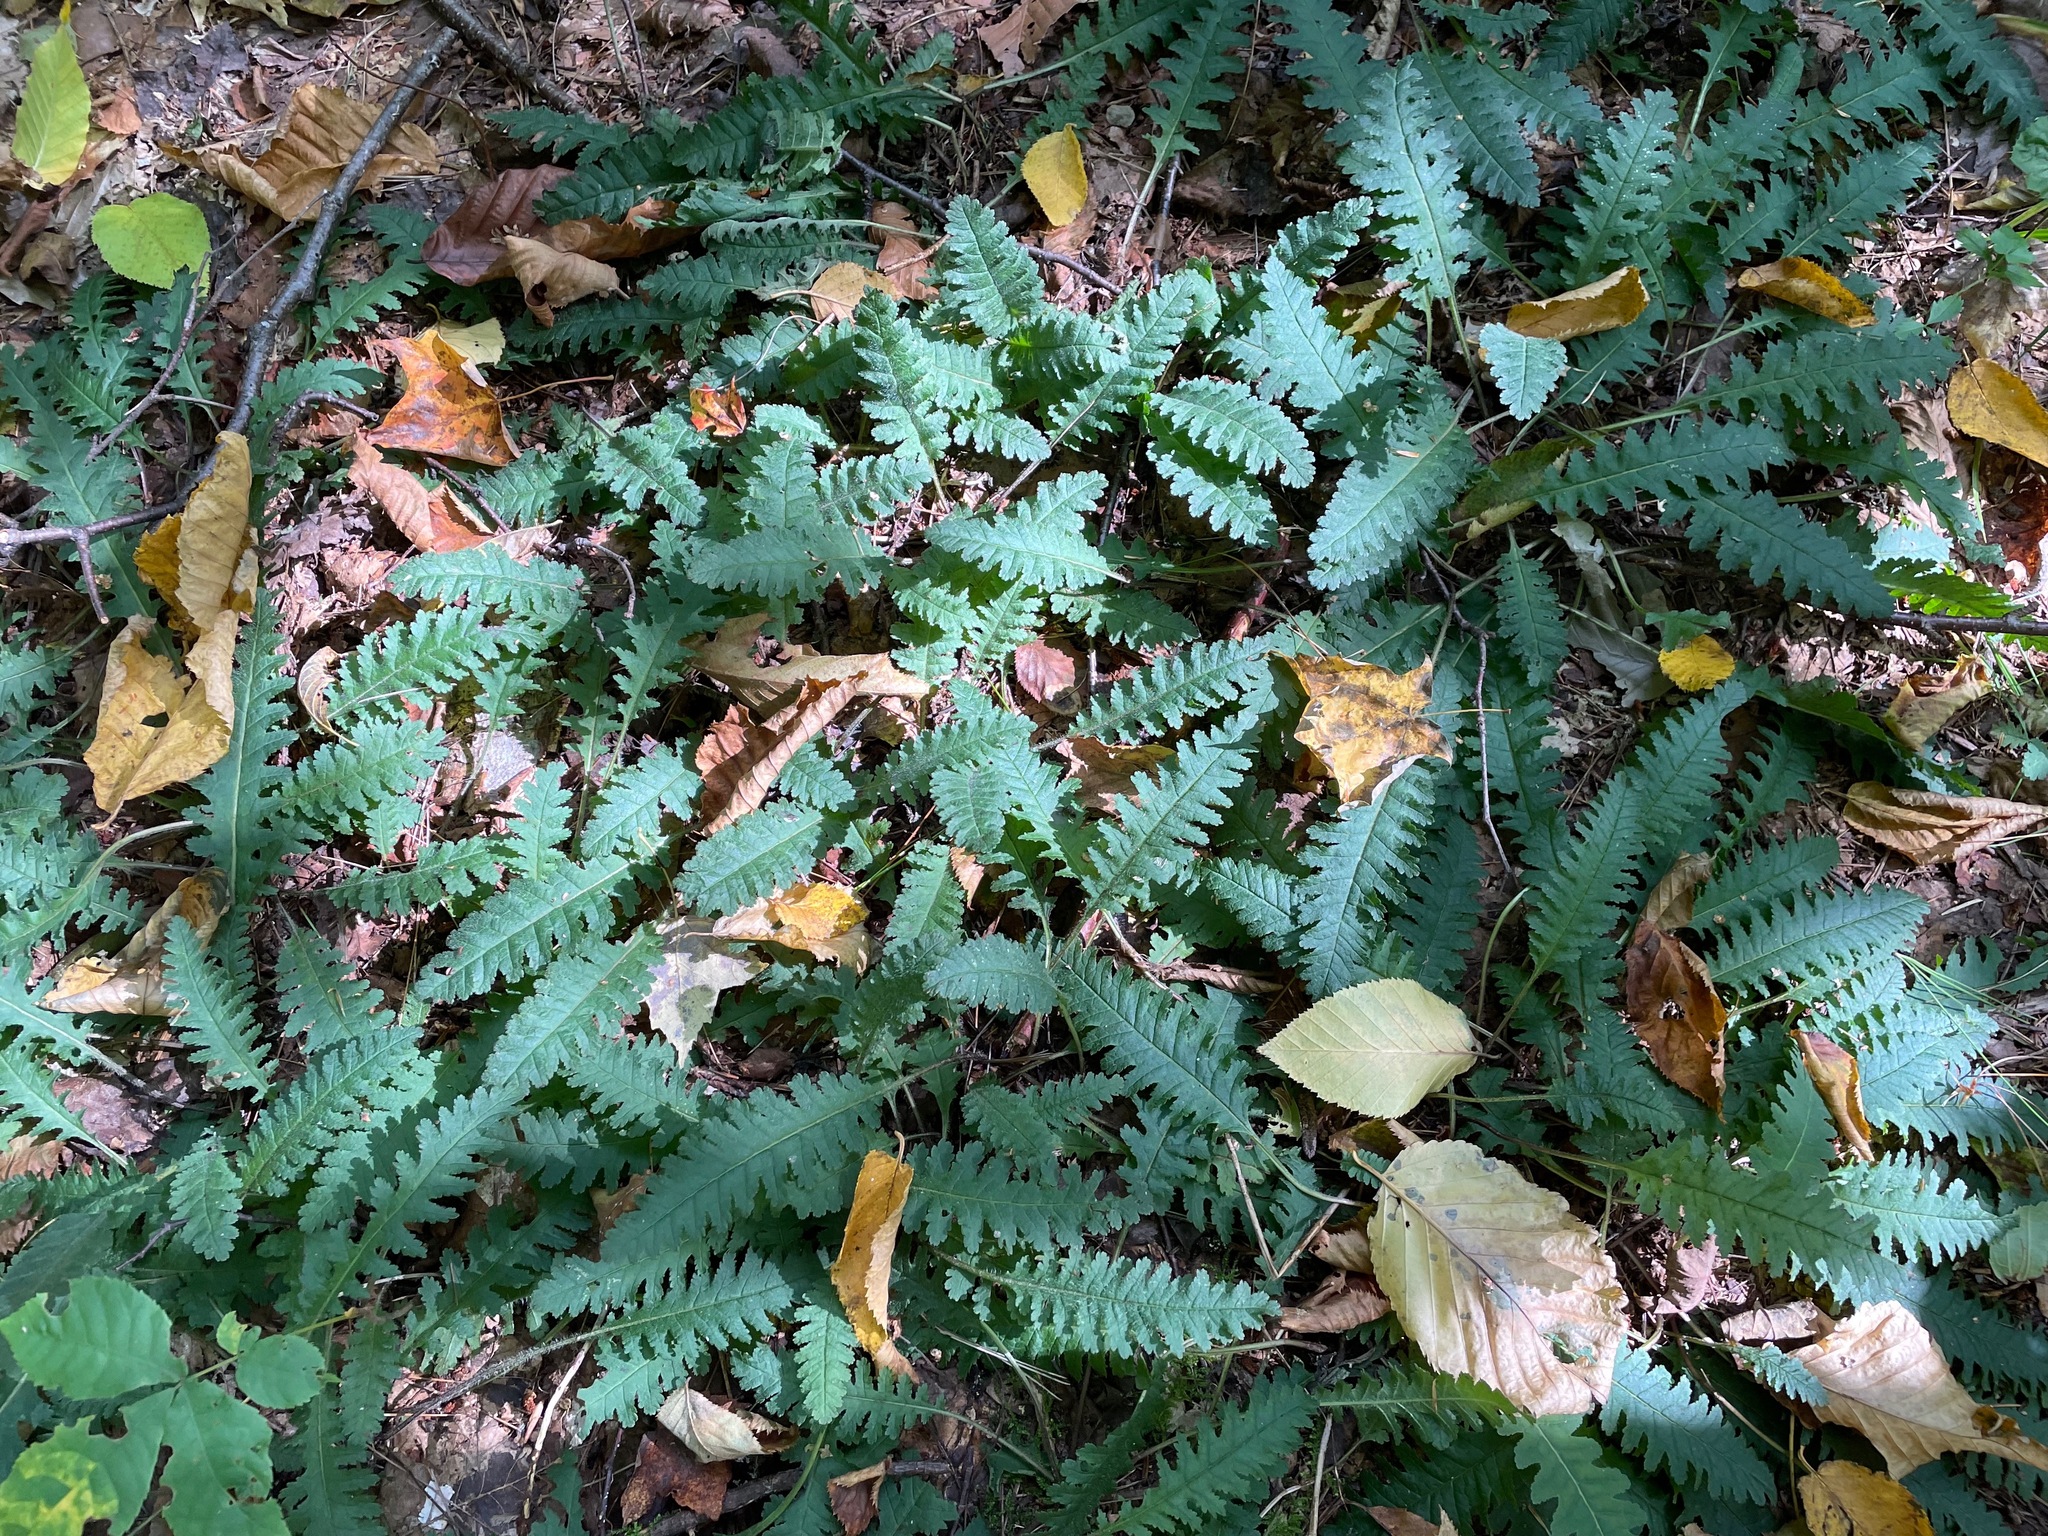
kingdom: Plantae
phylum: Tracheophyta
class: Magnoliopsida
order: Lamiales
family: Orobanchaceae
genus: Pedicularis
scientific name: Pedicularis canadensis
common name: Early lousewort
